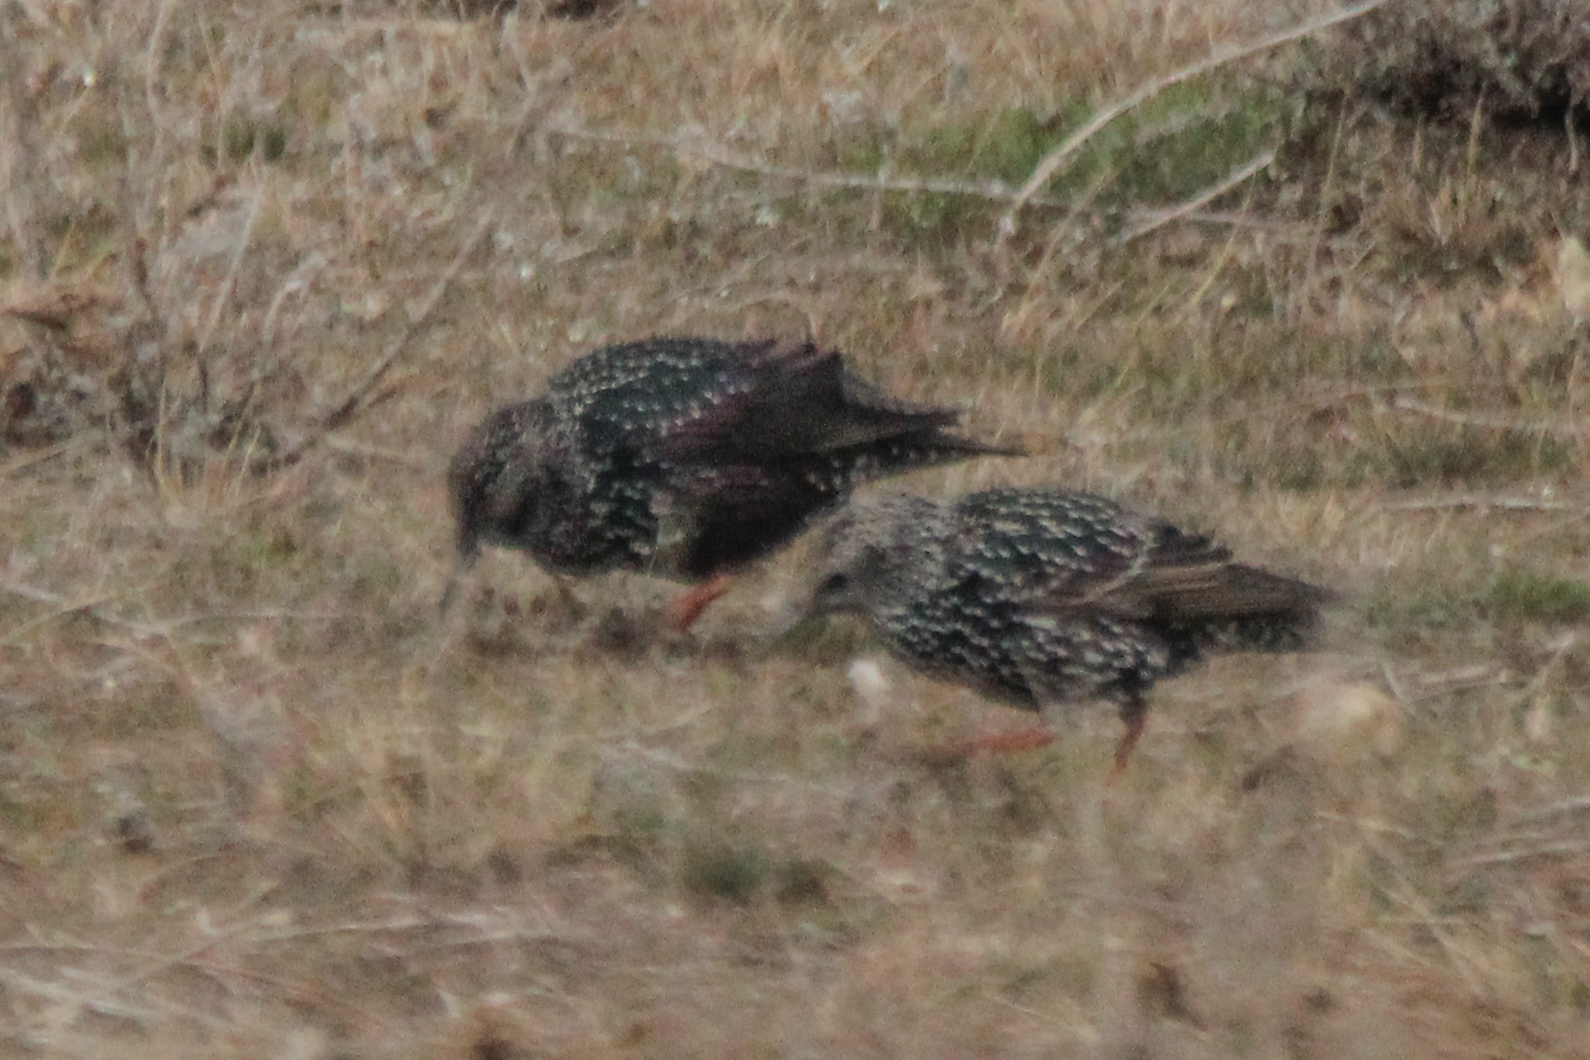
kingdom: Animalia
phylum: Chordata
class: Aves
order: Passeriformes
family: Sturnidae
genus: Sturnus
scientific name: Sturnus vulgaris
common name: Common starling
